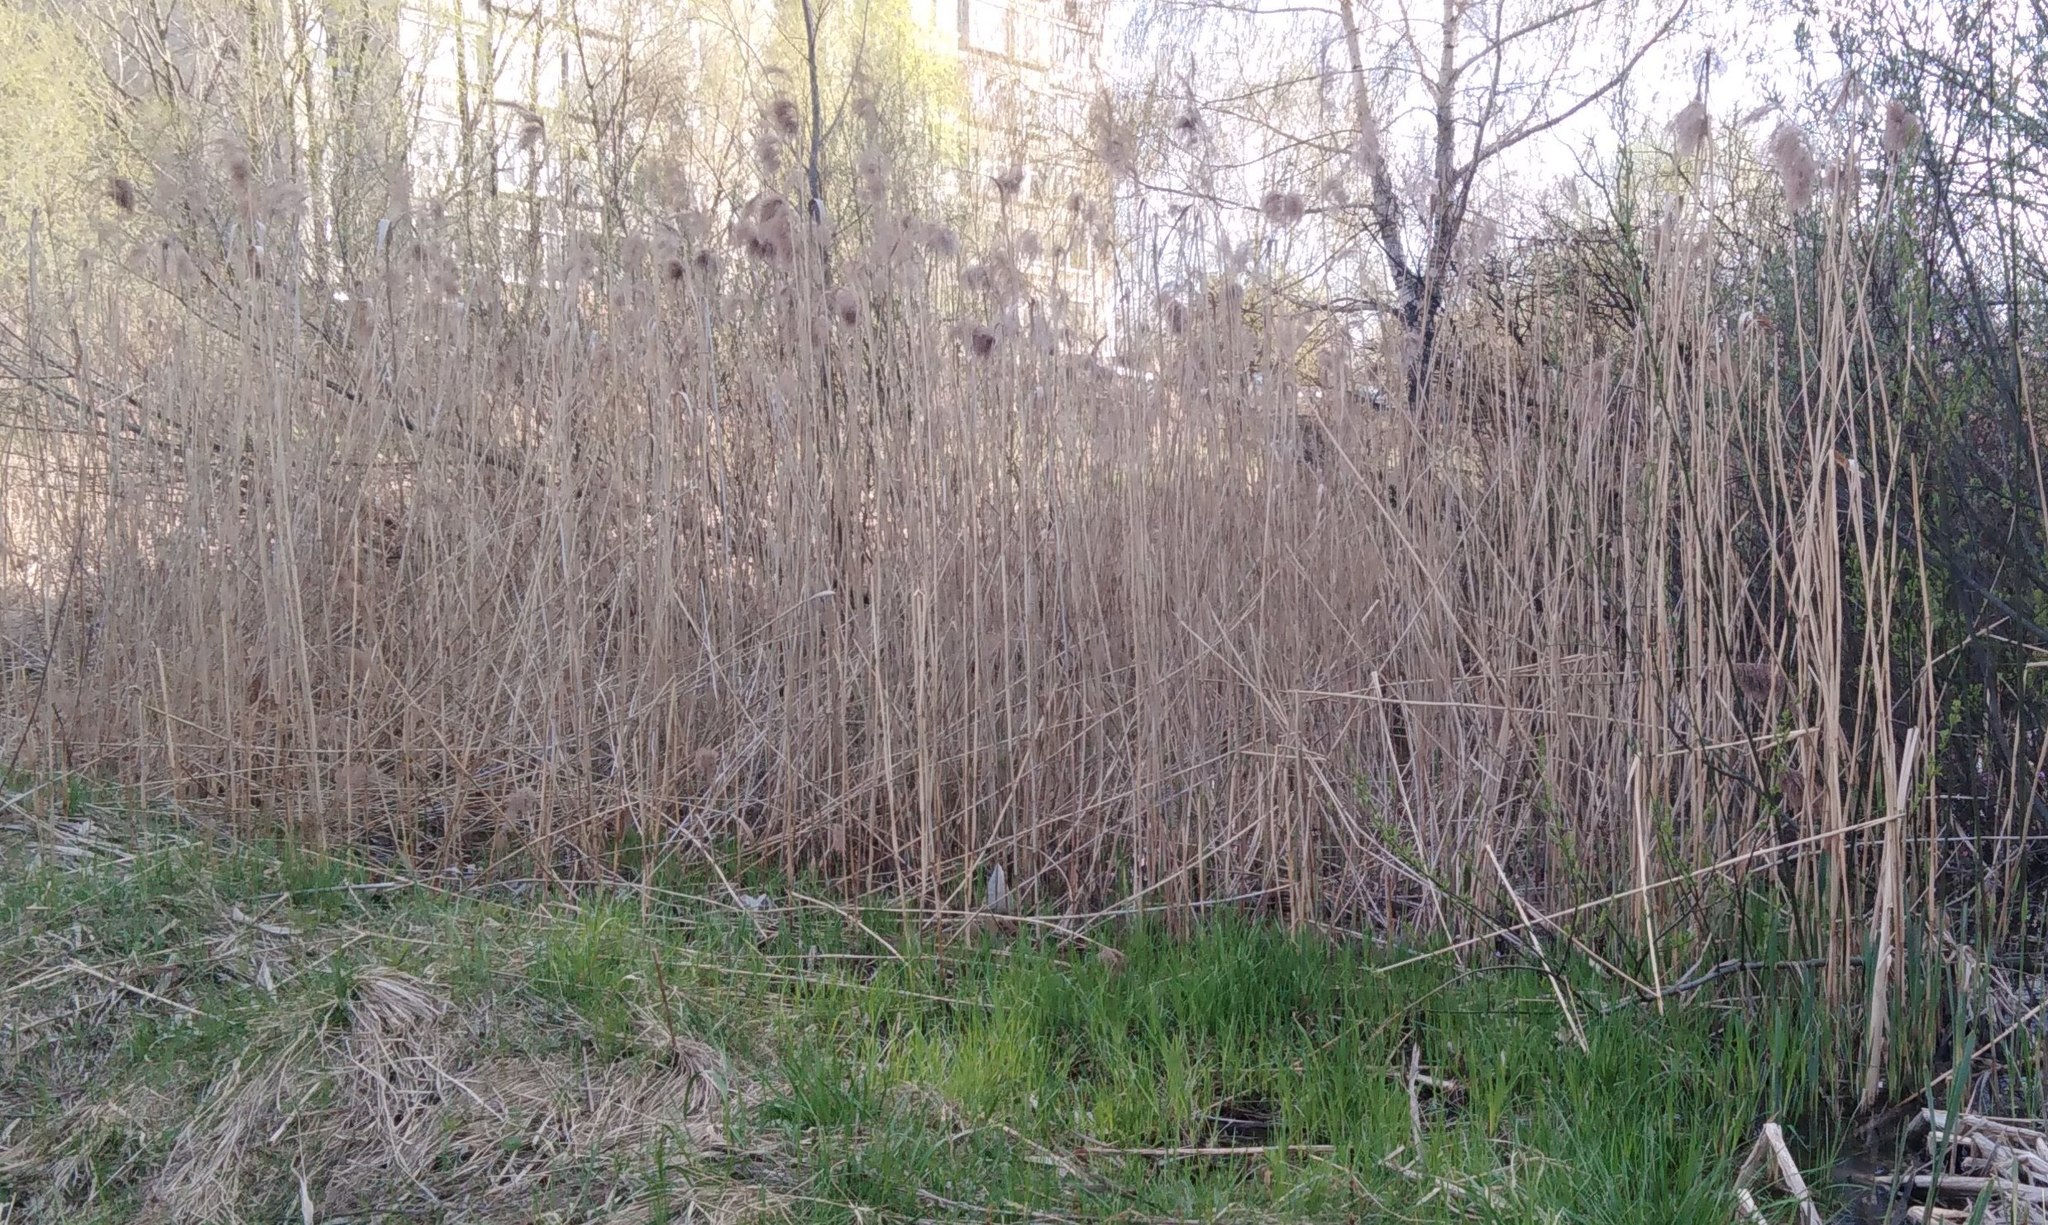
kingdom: Plantae
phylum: Tracheophyta
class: Liliopsida
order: Poales
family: Poaceae
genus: Phragmites
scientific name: Phragmites australis
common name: Common reed
